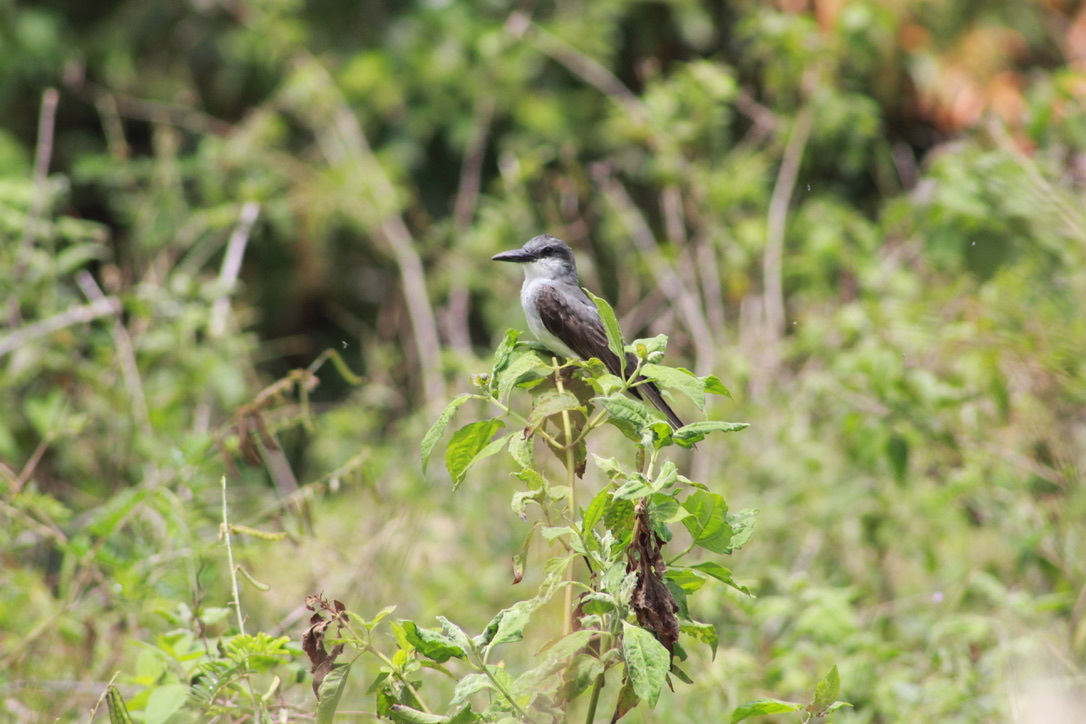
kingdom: Animalia
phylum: Chordata
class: Aves
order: Passeriformes
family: Tyrannidae
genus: Tyrannus
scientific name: Tyrannus dominicensis
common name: Gray kingbird
